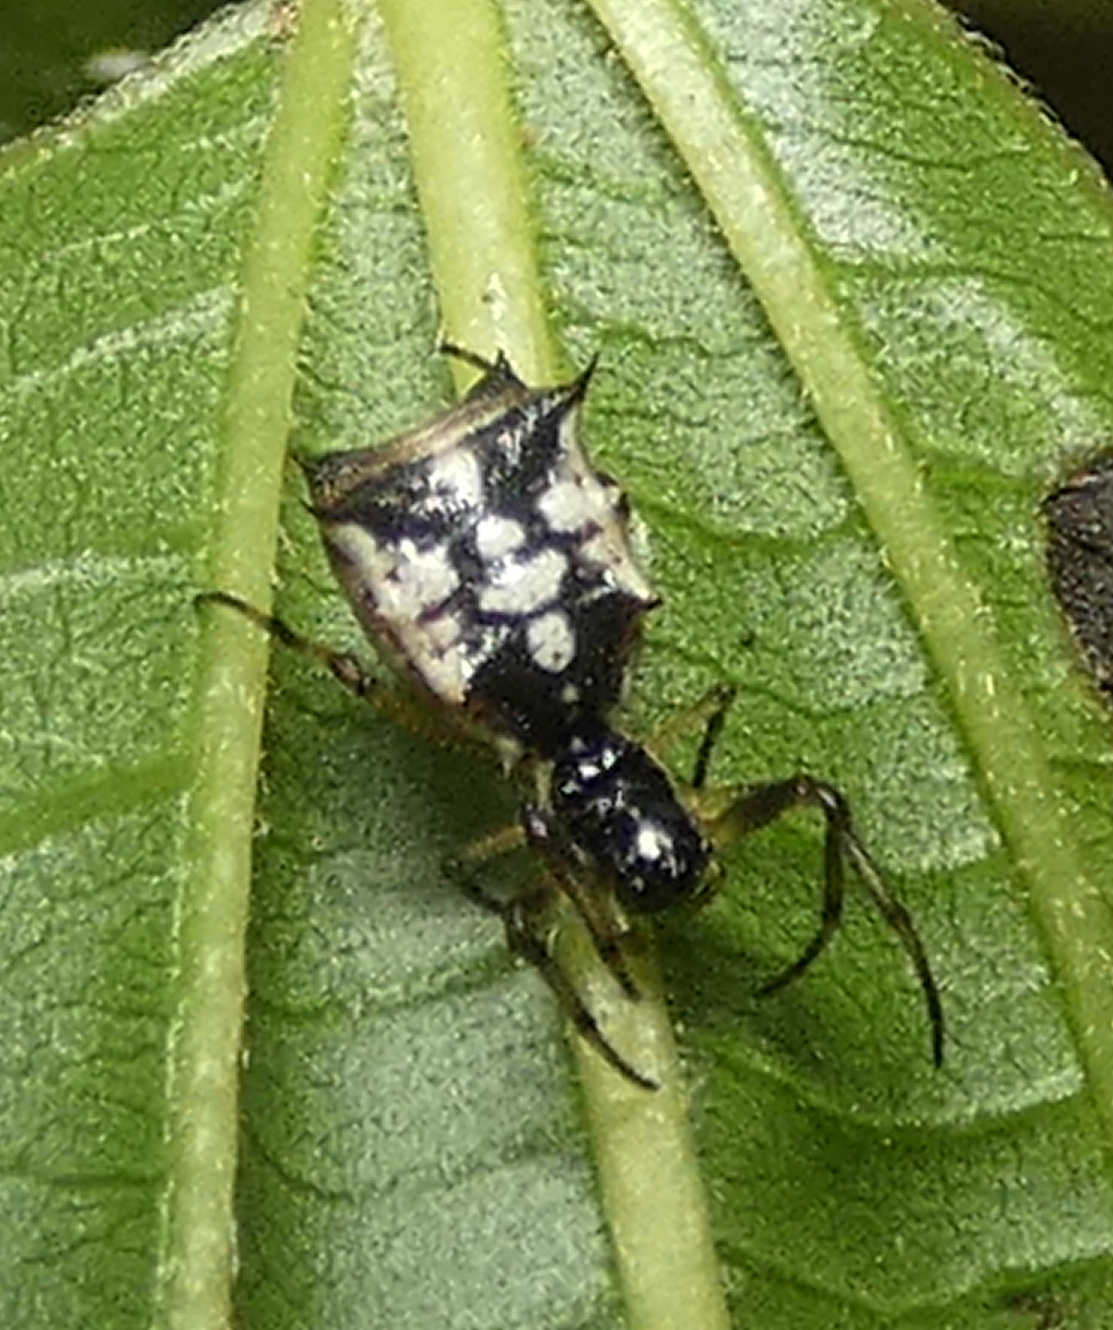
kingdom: Animalia
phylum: Arthropoda
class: Arachnida
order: Araneae
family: Araneidae
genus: Micrathena
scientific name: Micrathena picta
